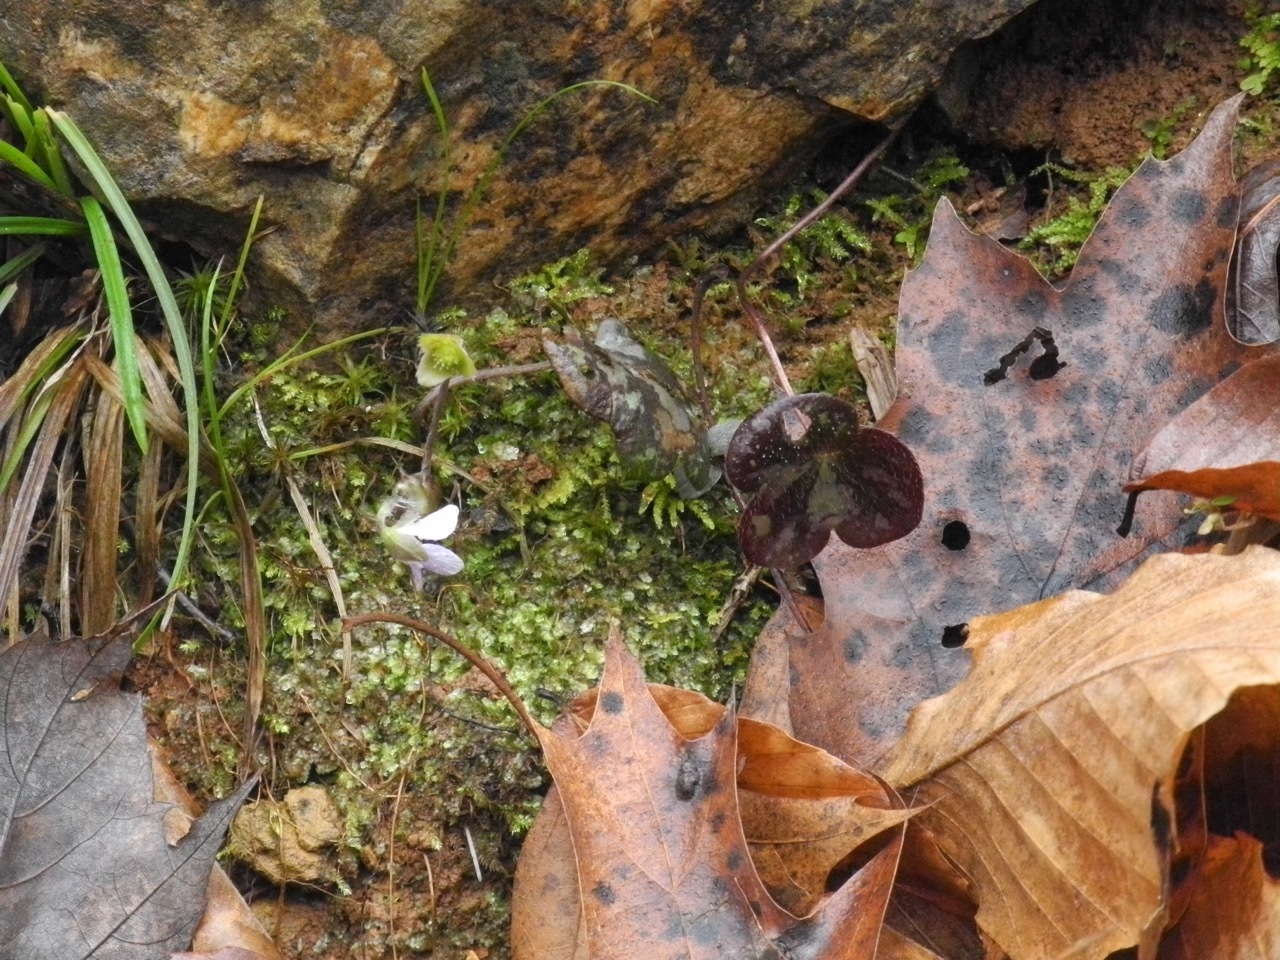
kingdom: Plantae
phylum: Tracheophyta
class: Magnoliopsida
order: Ranunculales
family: Ranunculaceae
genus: Hepatica
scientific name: Hepatica americana
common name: American hepatica
